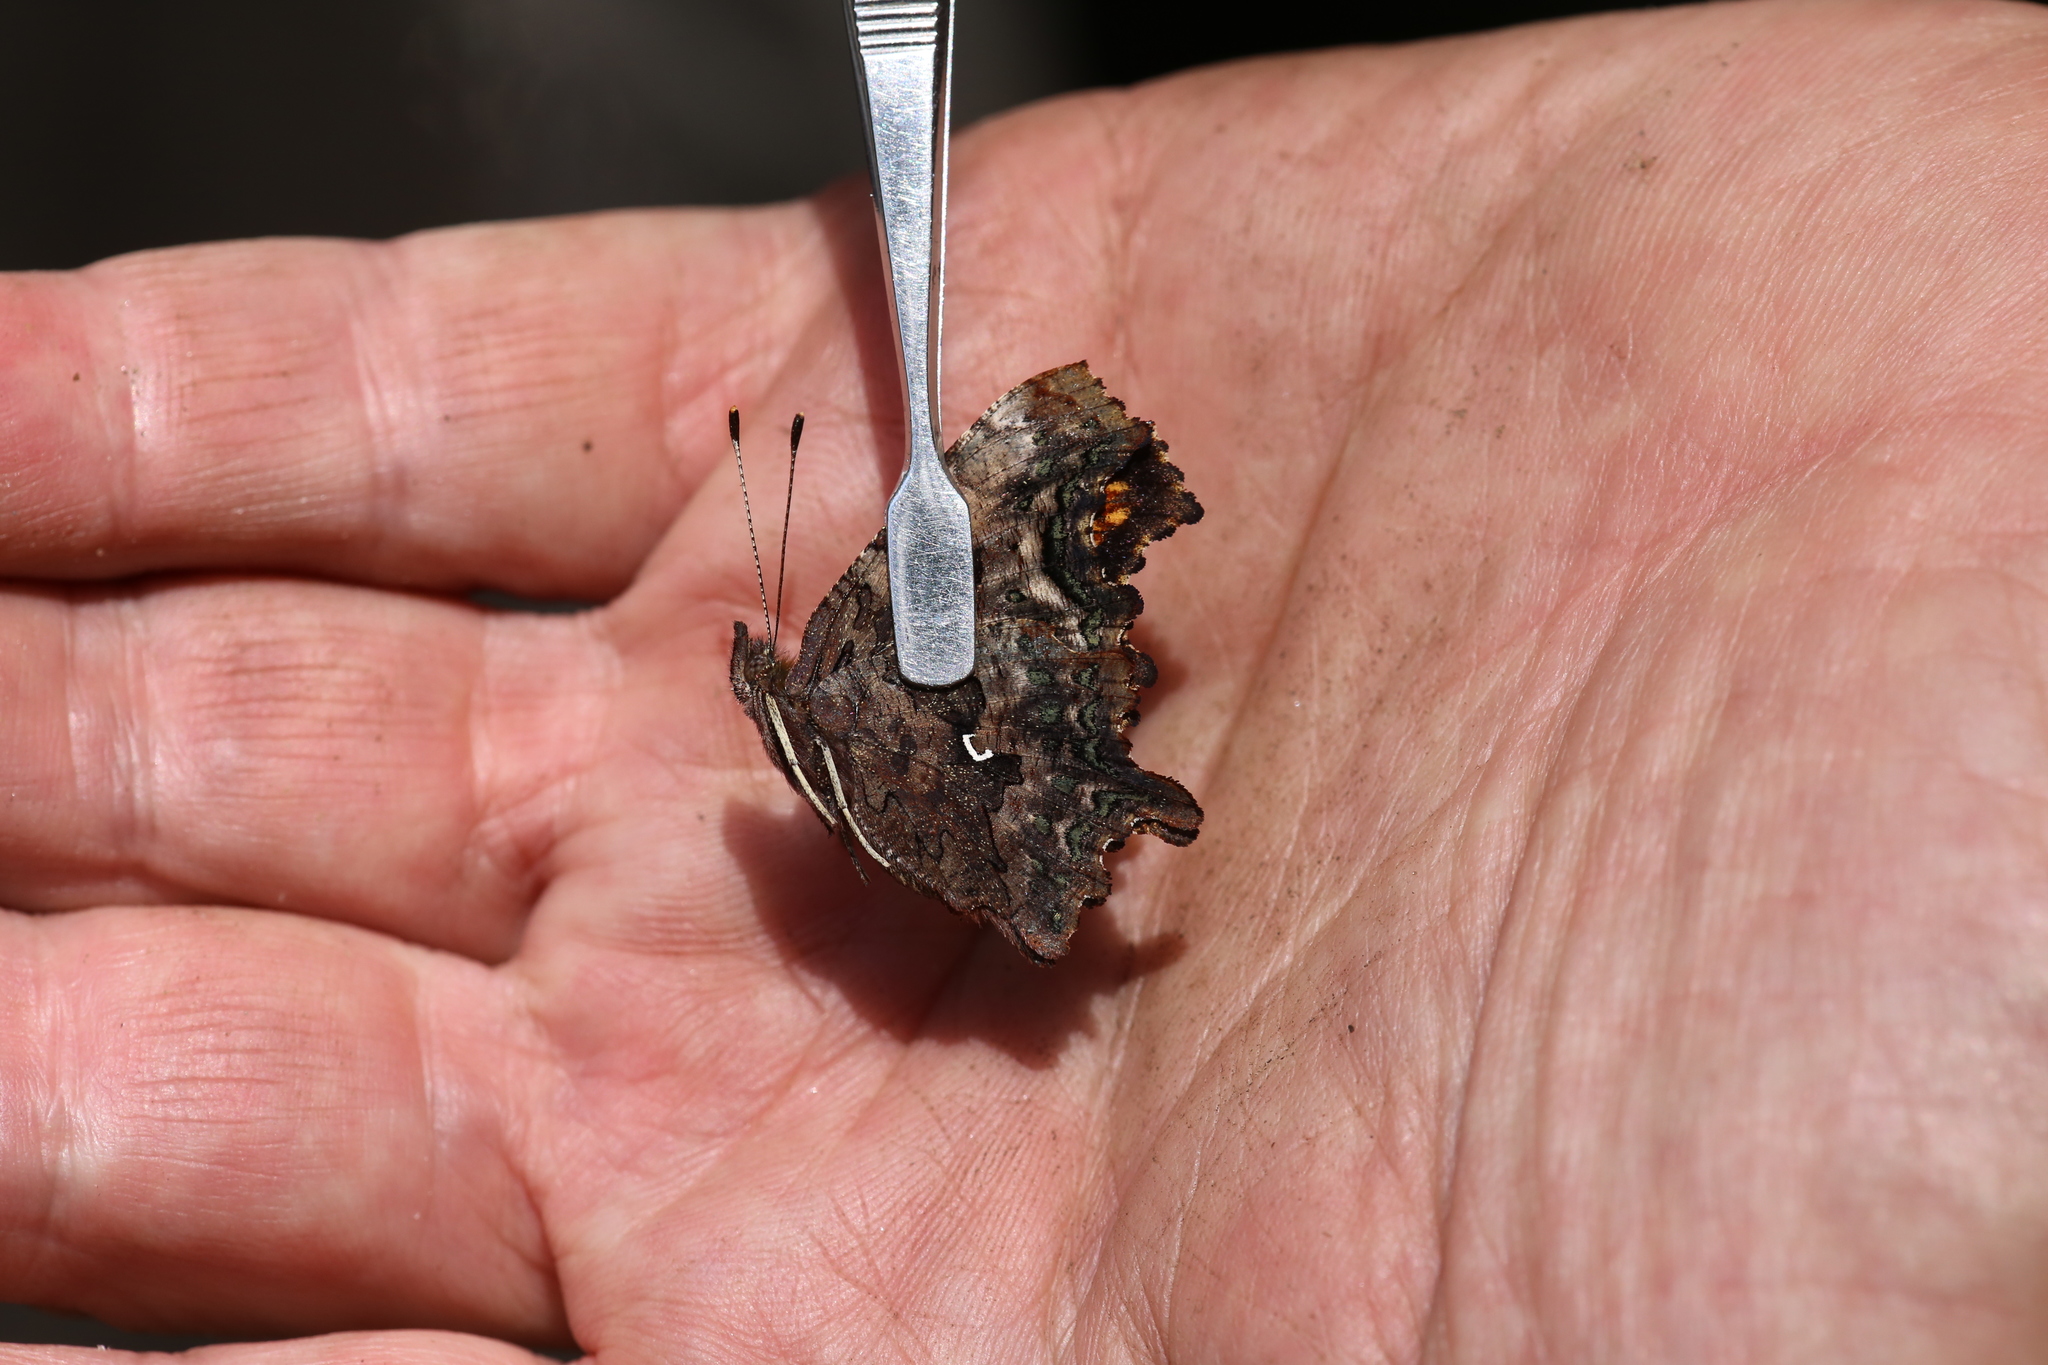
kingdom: Animalia
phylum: Arthropoda
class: Insecta
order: Lepidoptera
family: Nymphalidae
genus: Polygonia
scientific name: Polygonia faunus
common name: Green comma
